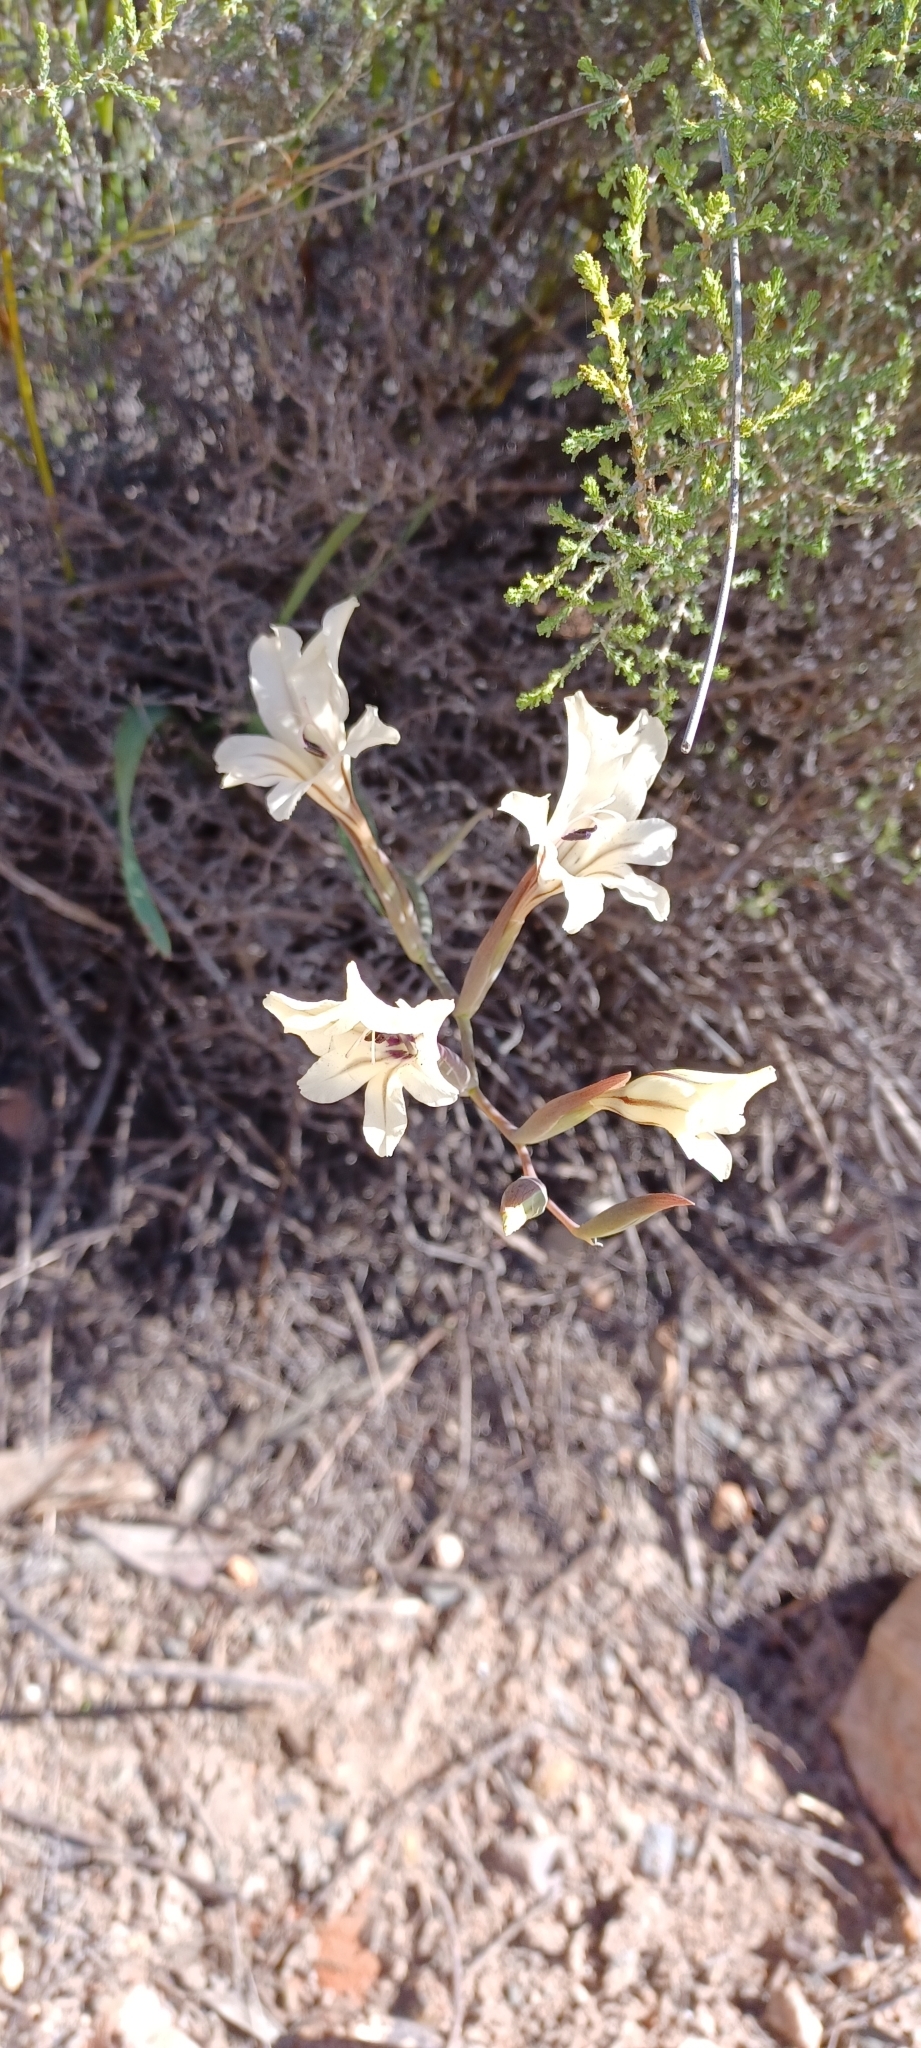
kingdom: Plantae
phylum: Tracheophyta
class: Liliopsida
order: Asparagales
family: Iridaceae
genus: Gladiolus
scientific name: Gladiolus floribundus
